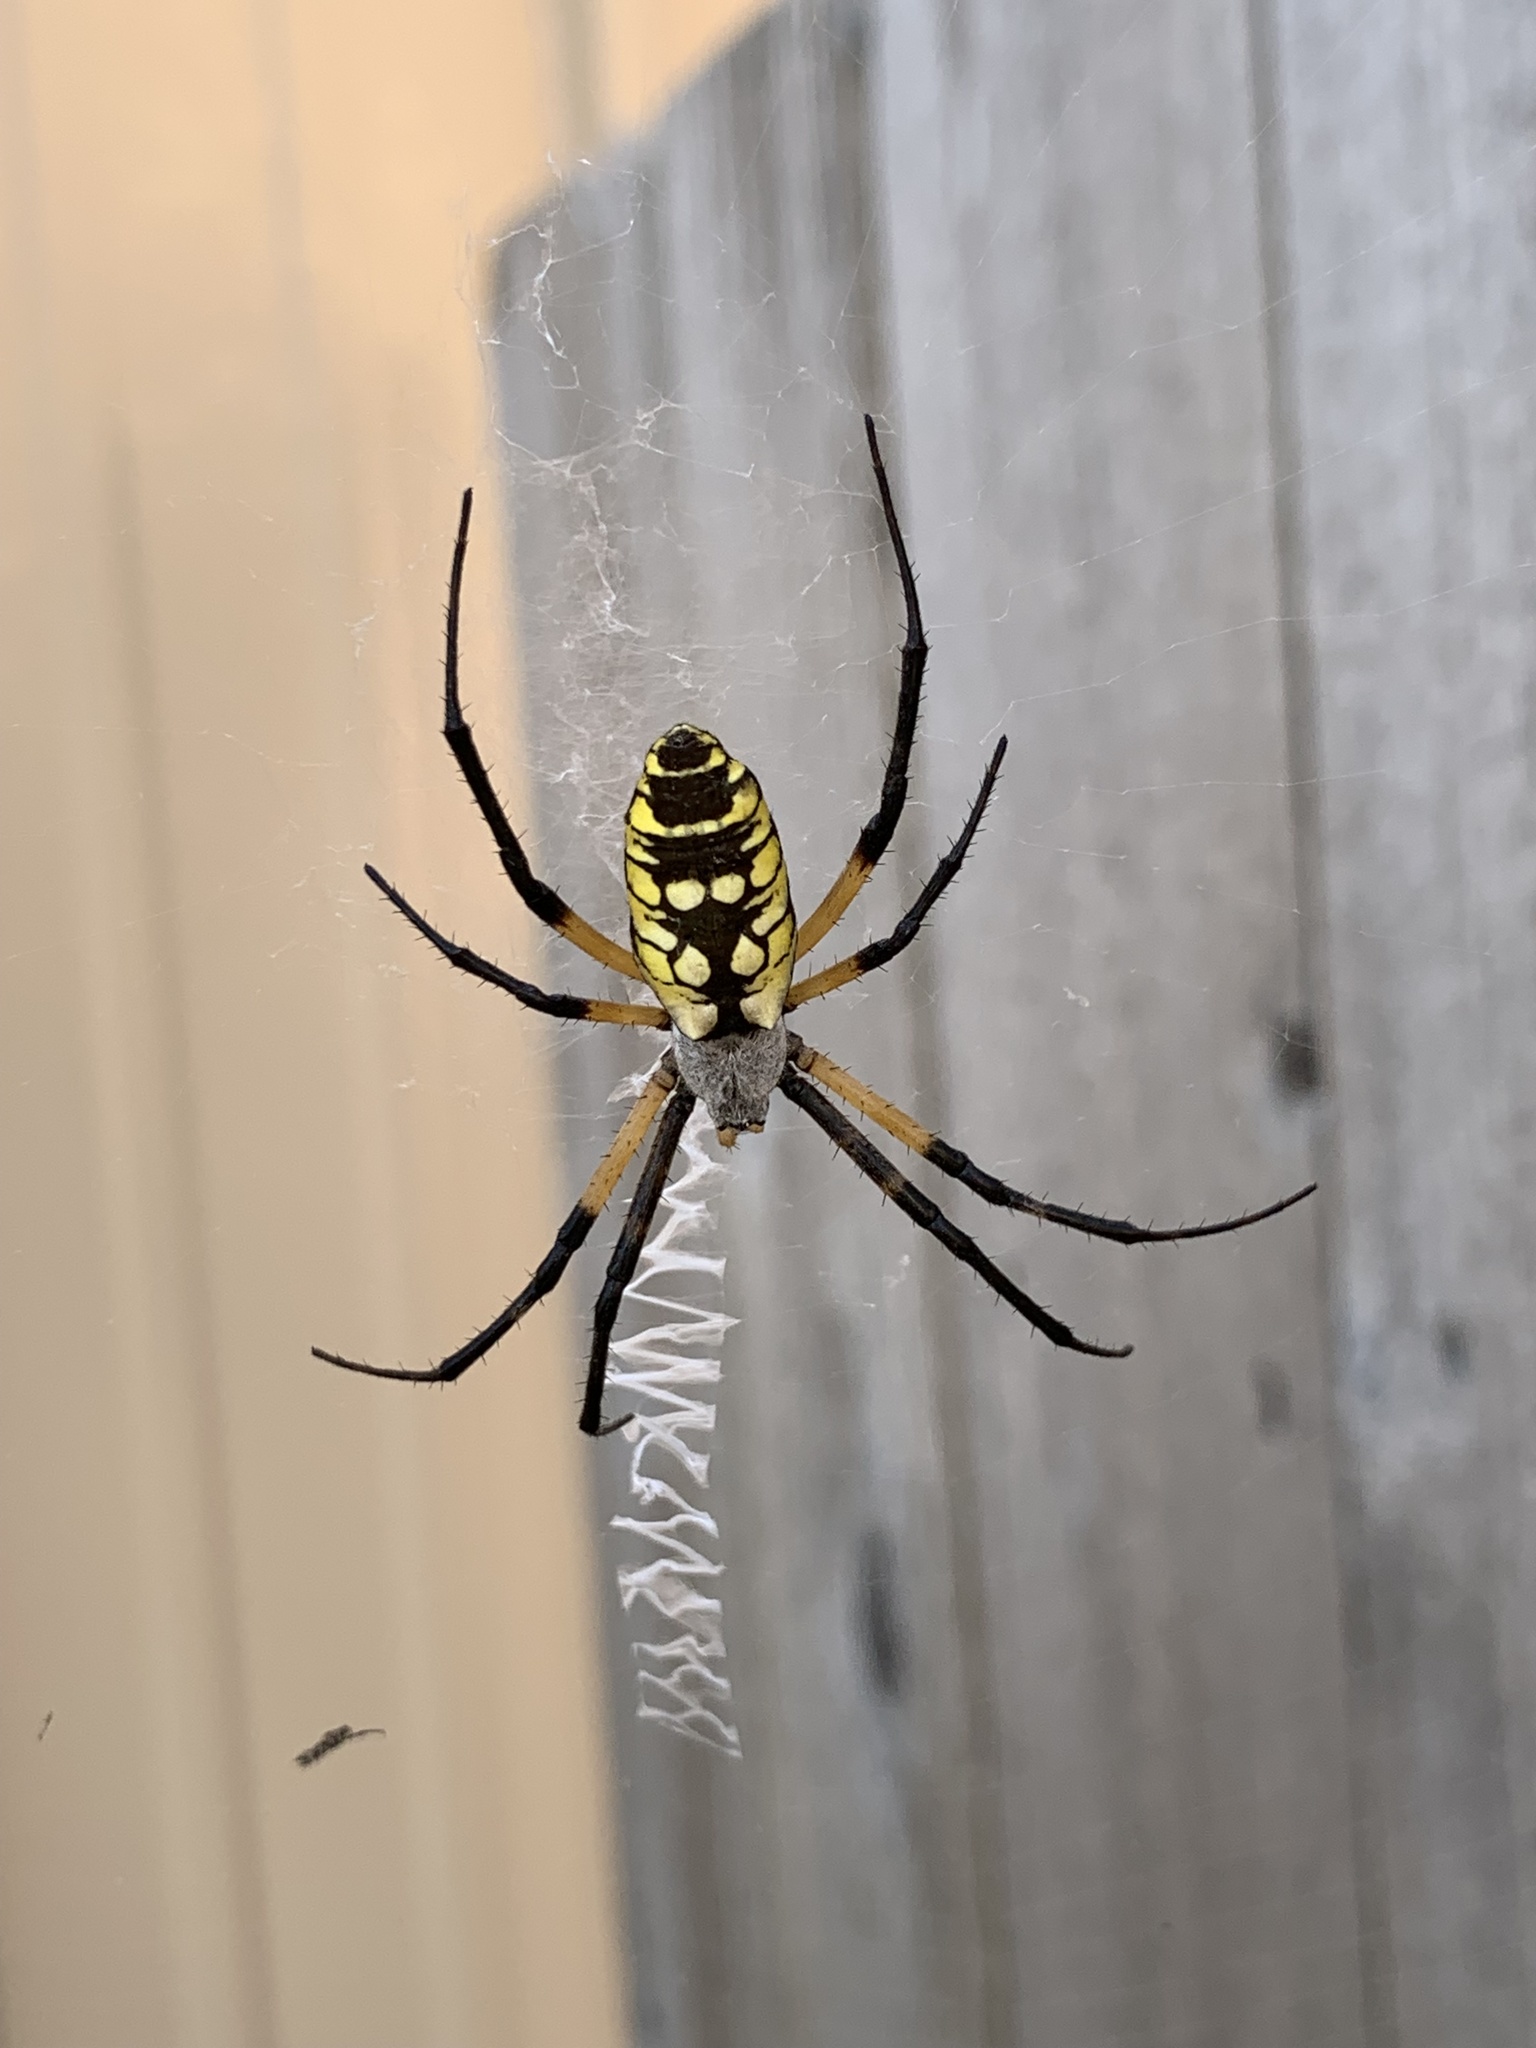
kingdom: Animalia
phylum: Arthropoda
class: Arachnida
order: Araneae
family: Araneidae
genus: Argiope
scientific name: Argiope aurantia
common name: Orb weavers
